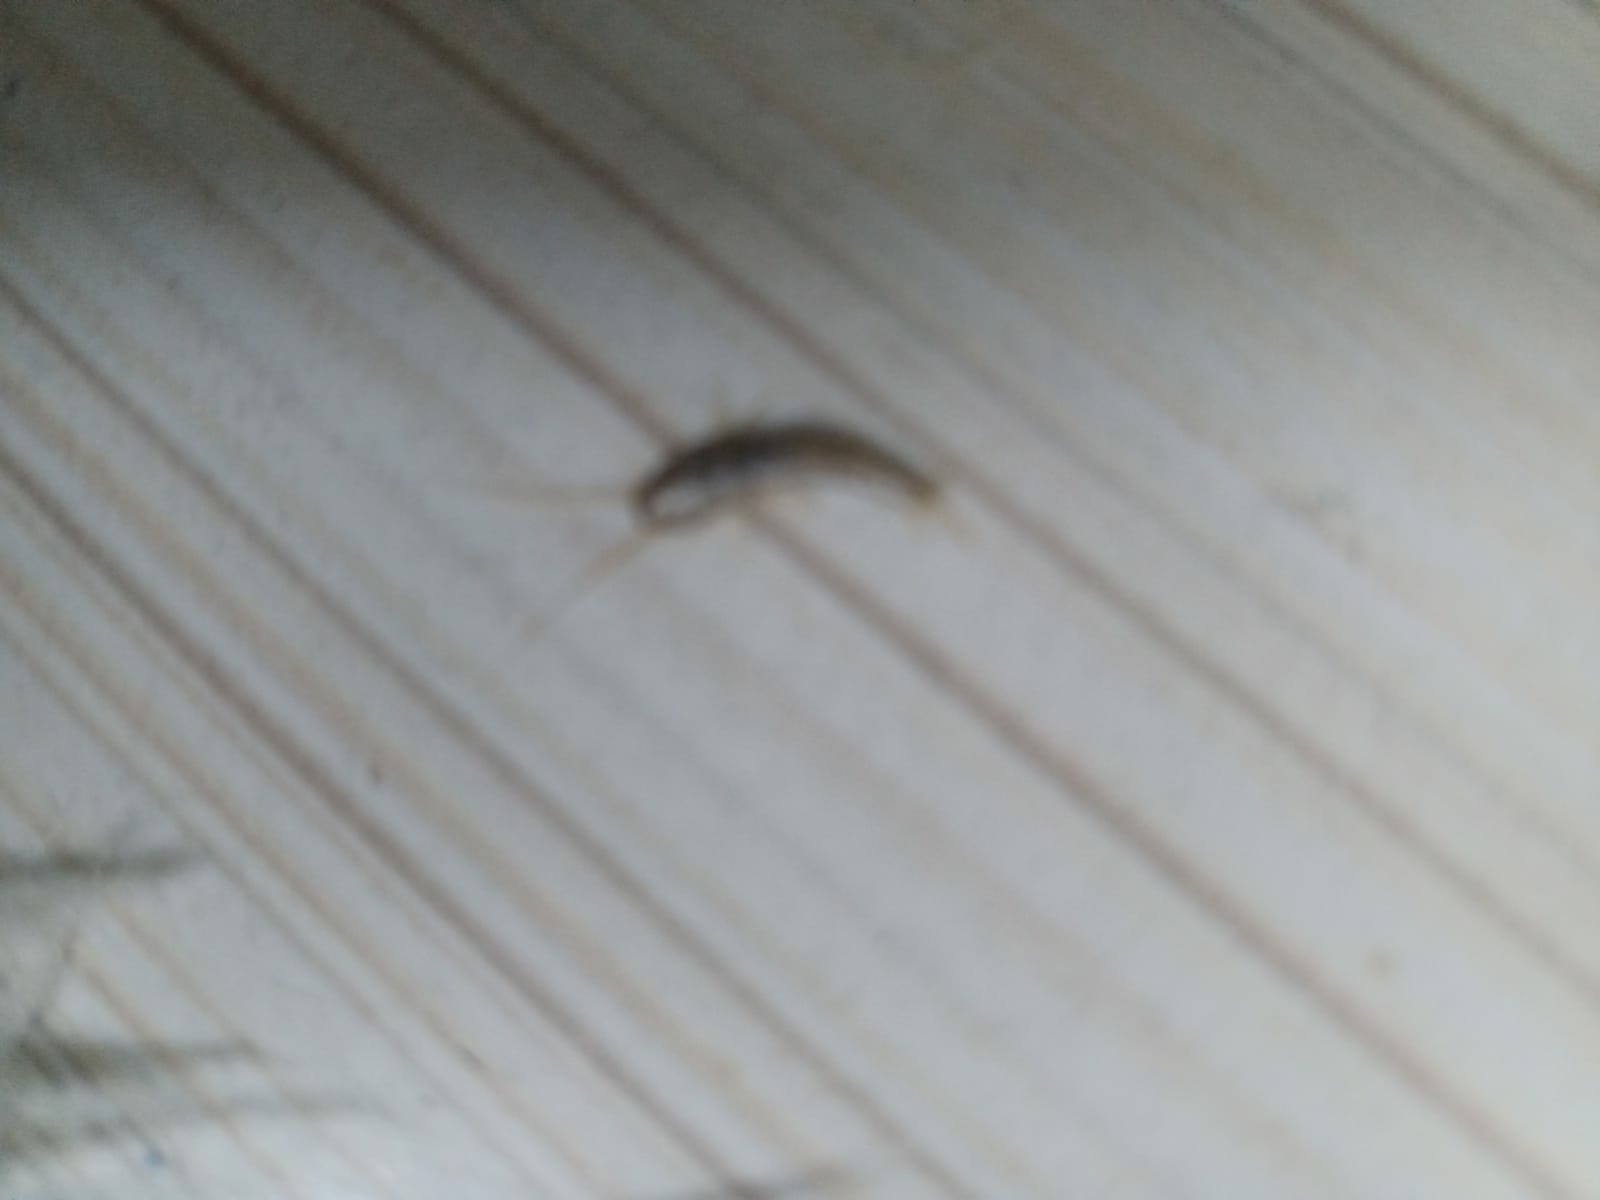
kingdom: Animalia
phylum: Arthropoda
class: Insecta
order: Zygentoma
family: Lepismatidae
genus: Lepisma
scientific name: Lepisma saccharinum
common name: Silverfish
